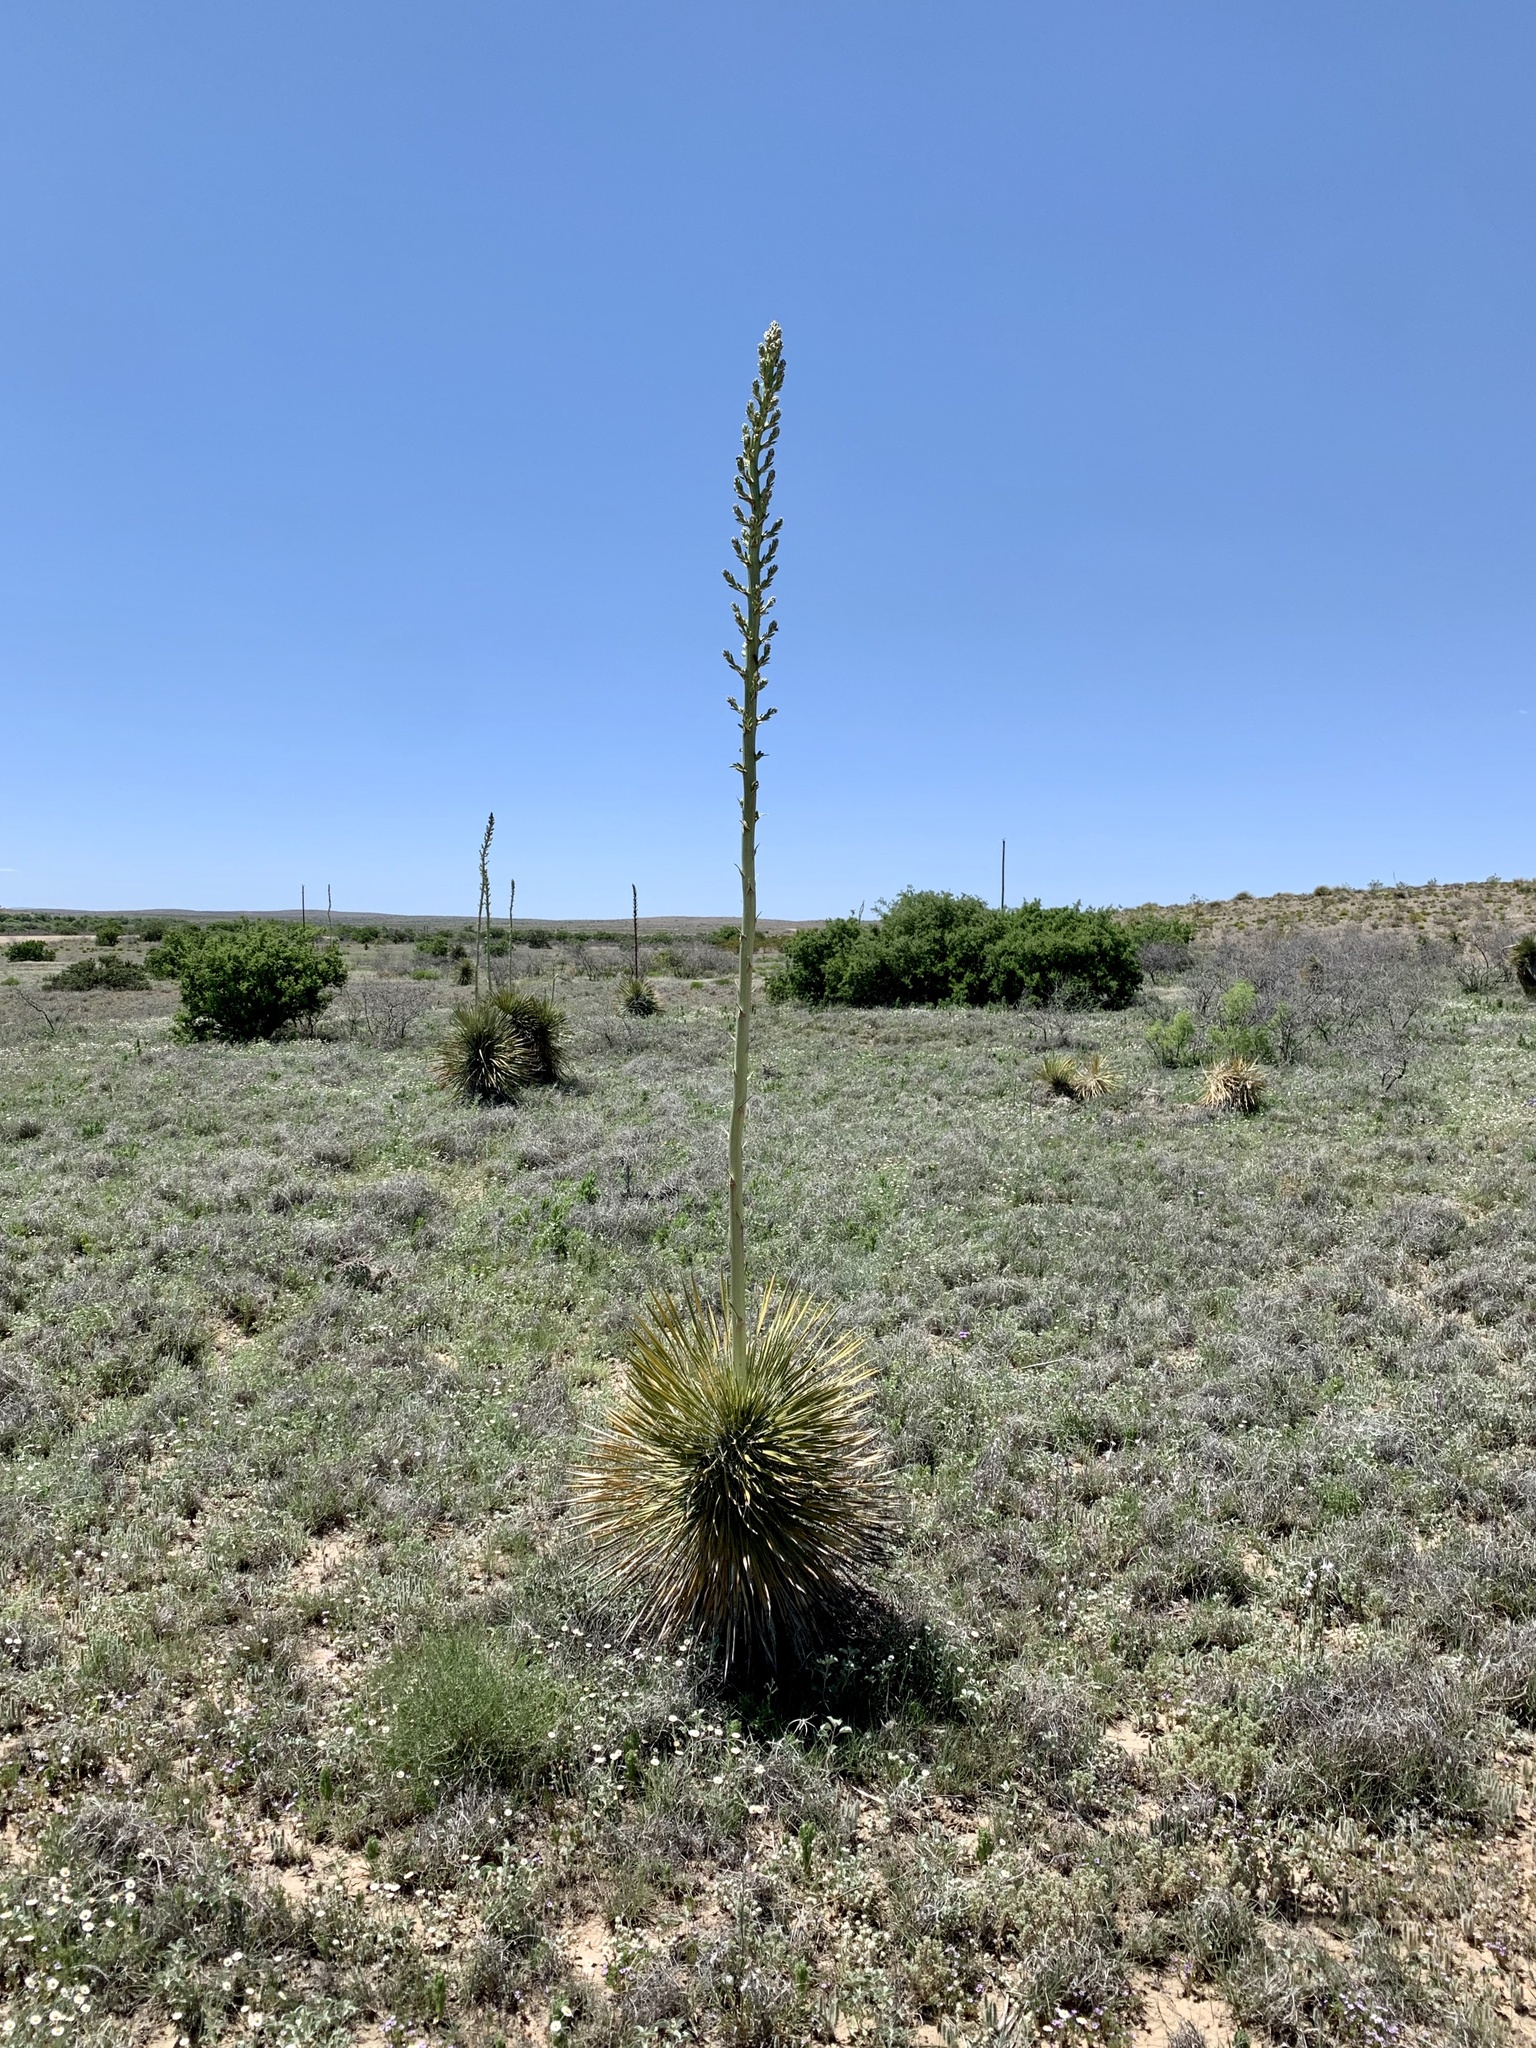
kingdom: Plantae
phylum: Tracheophyta
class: Liliopsida
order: Asparagales
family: Asparagaceae
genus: Yucca
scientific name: Yucca elata
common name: Palmella
